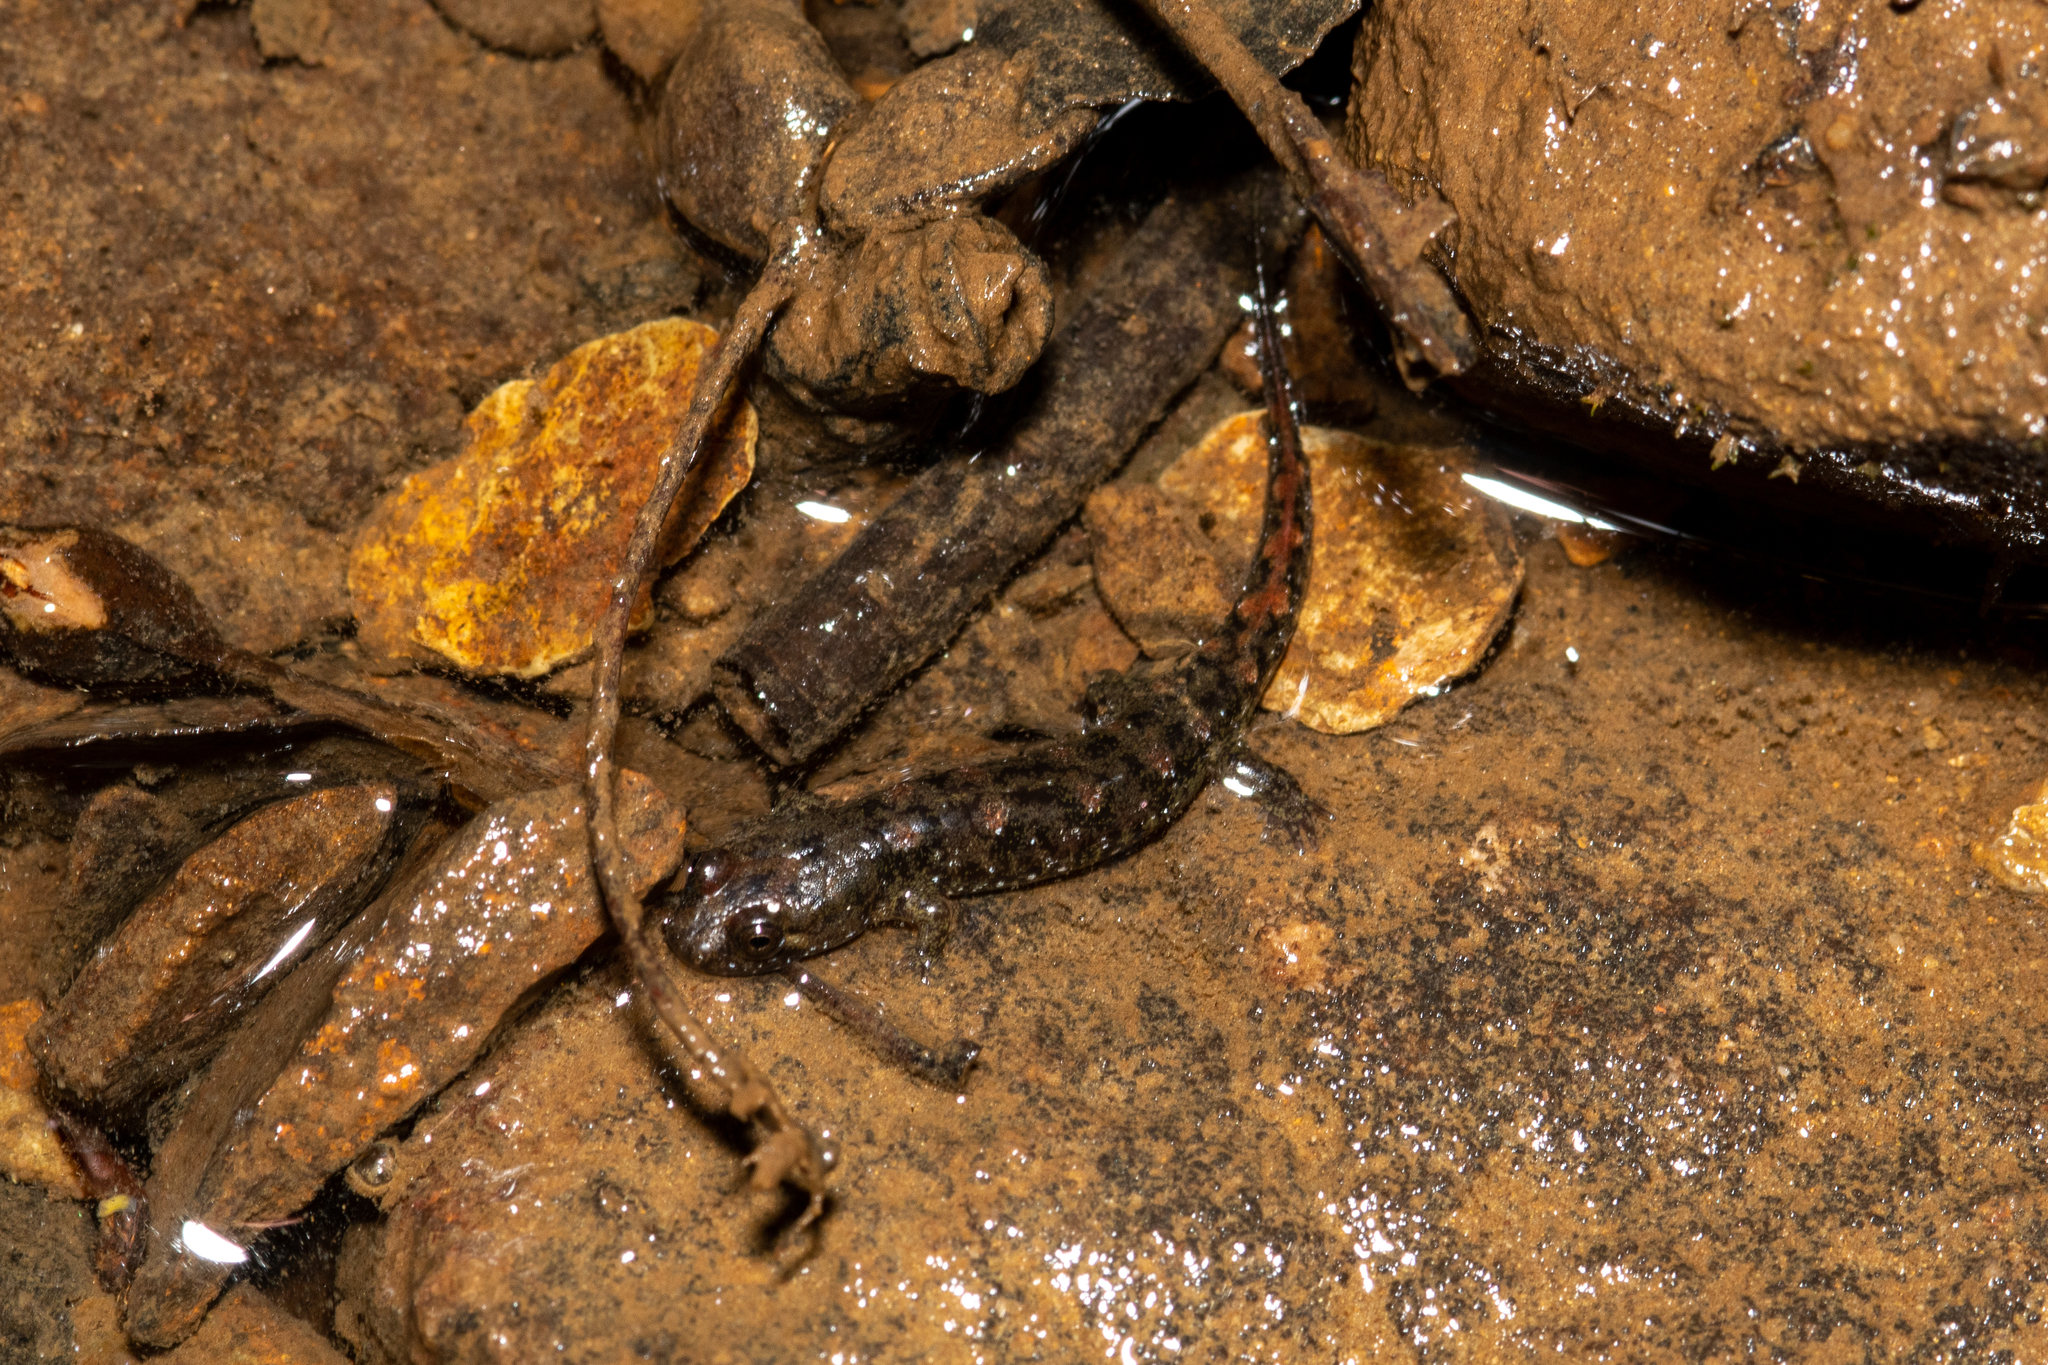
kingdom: Animalia
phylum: Chordata
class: Amphibia
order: Caudata
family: Plethodontidae
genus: Desmognathus
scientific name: Desmognathus monticola
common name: Seal salamander
